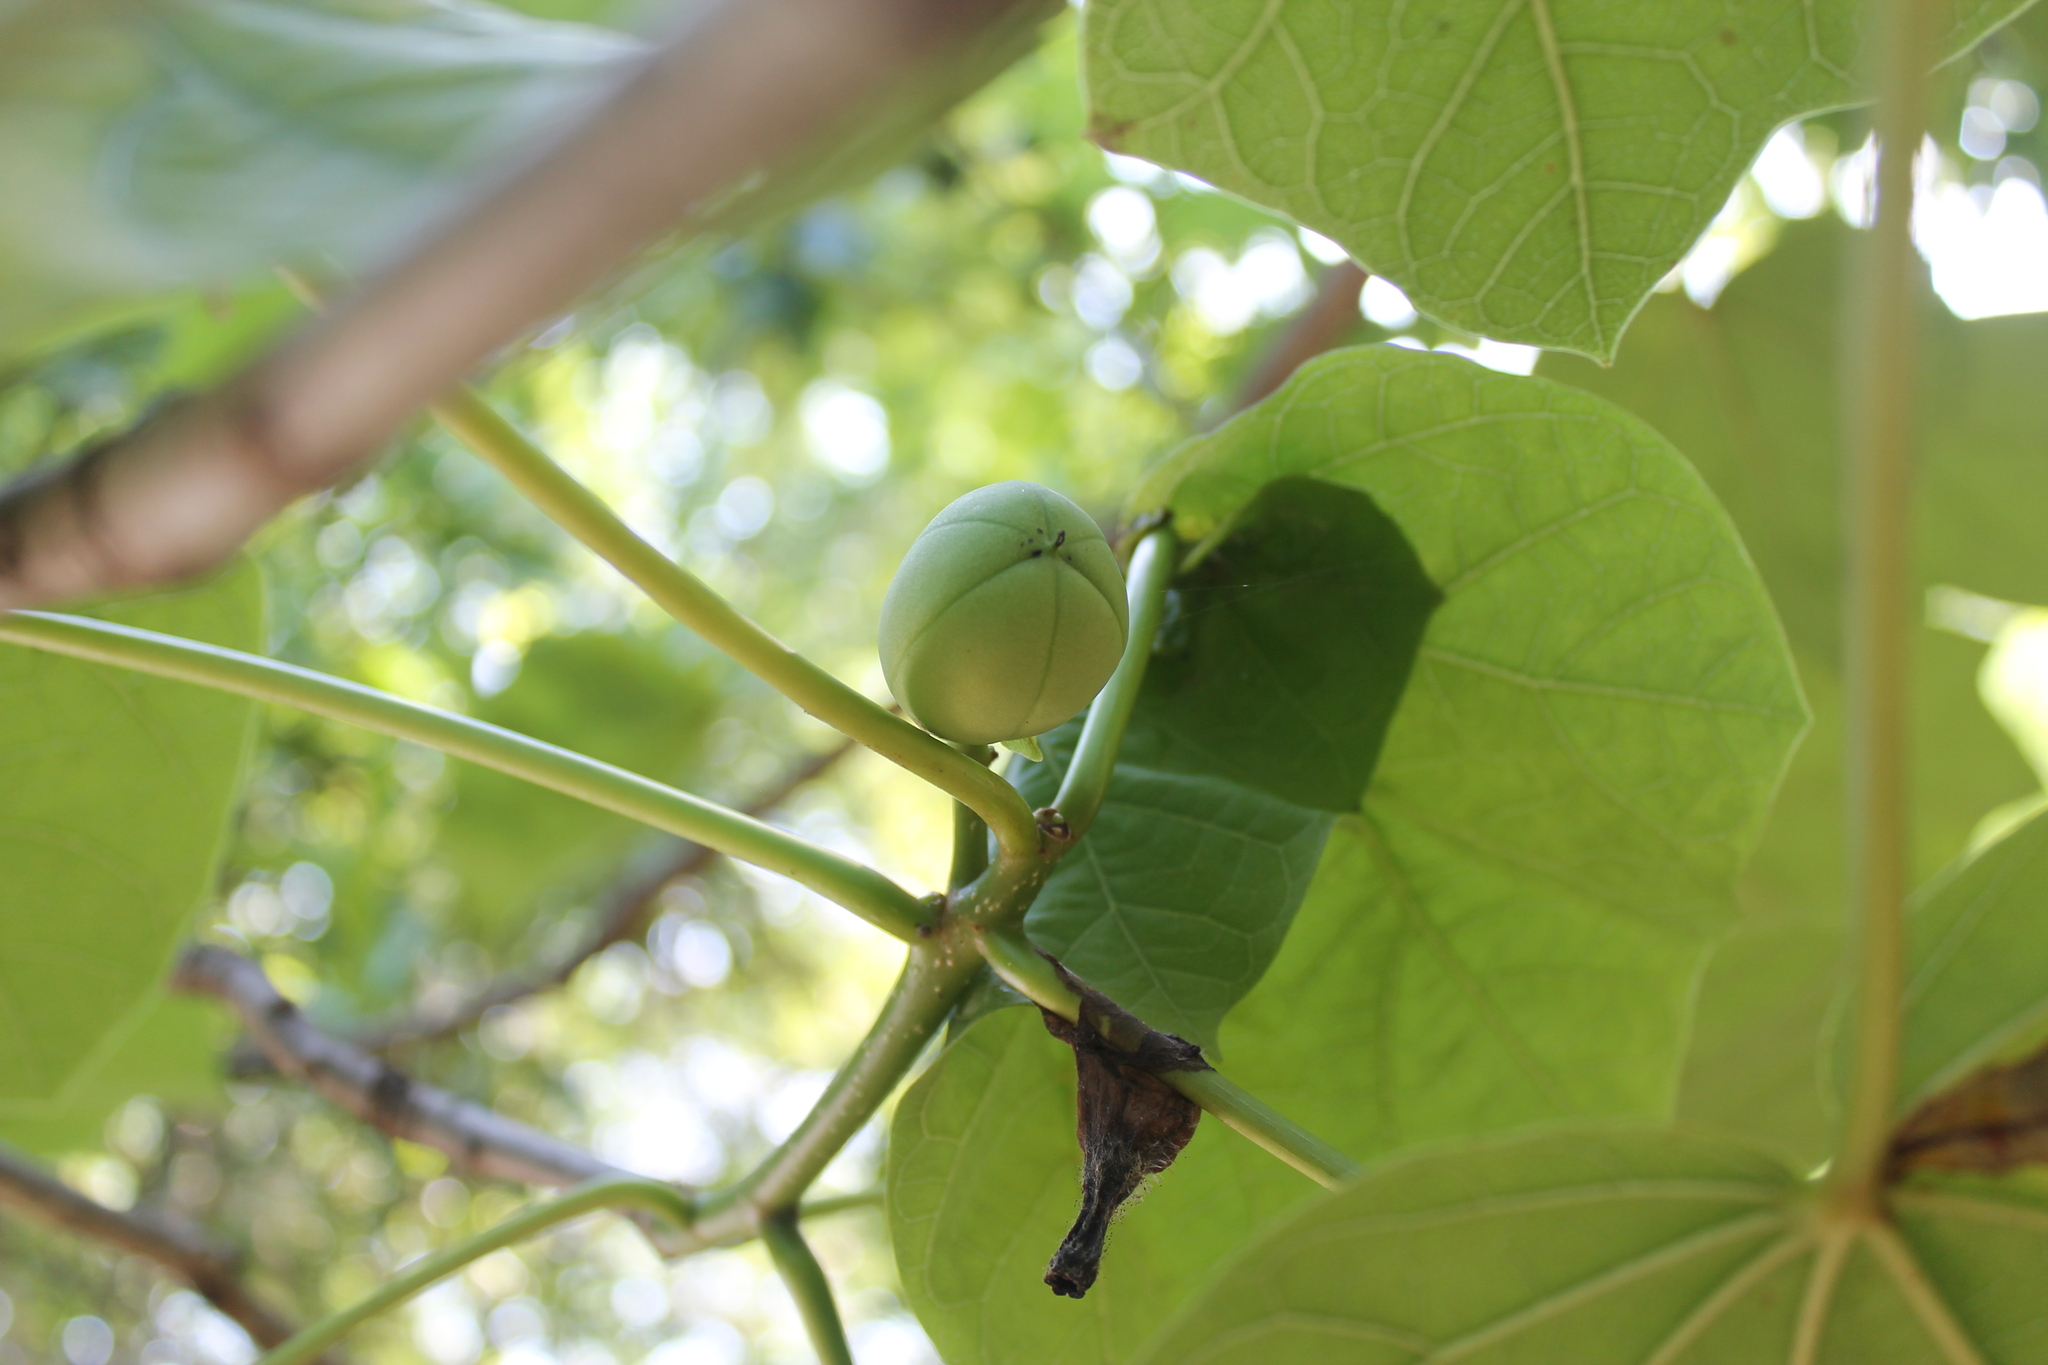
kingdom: Plantae
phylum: Tracheophyta
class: Magnoliopsida
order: Malpighiales
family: Euphorbiaceae
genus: Jatropha
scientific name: Jatropha curcas
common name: Barbados nut
